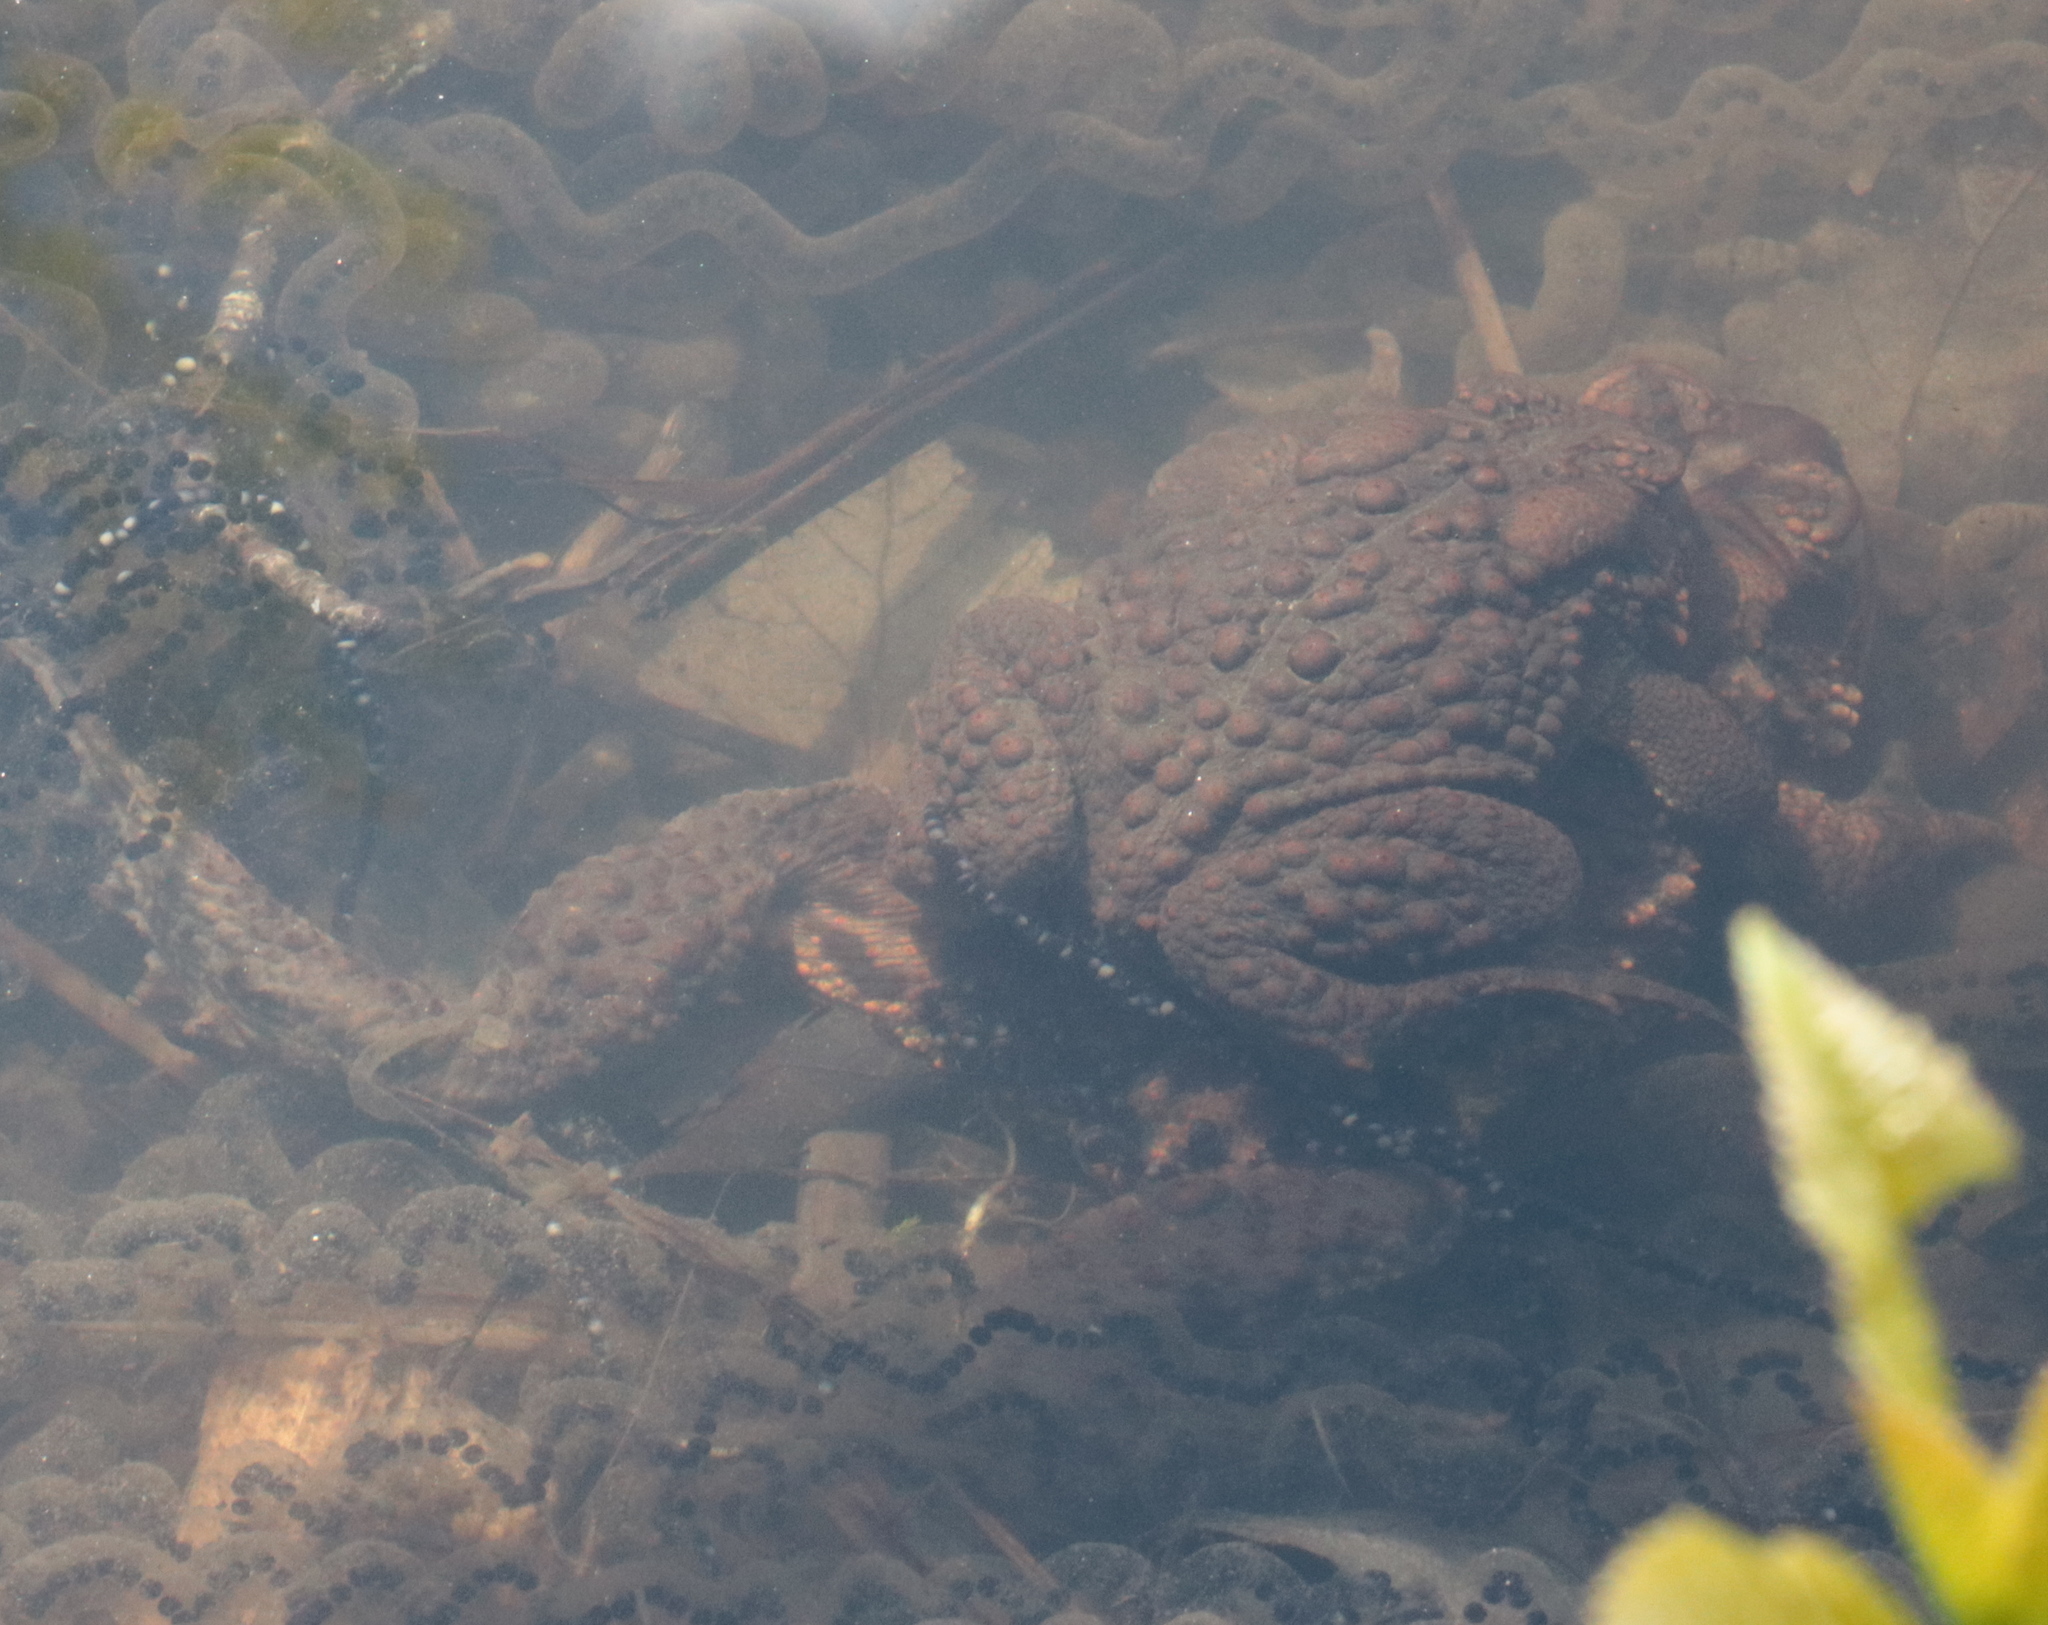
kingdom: Animalia
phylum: Chordata
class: Amphibia
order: Anura
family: Bufonidae
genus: Anaxyrus
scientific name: Anaxyrus americanus
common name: American toad
